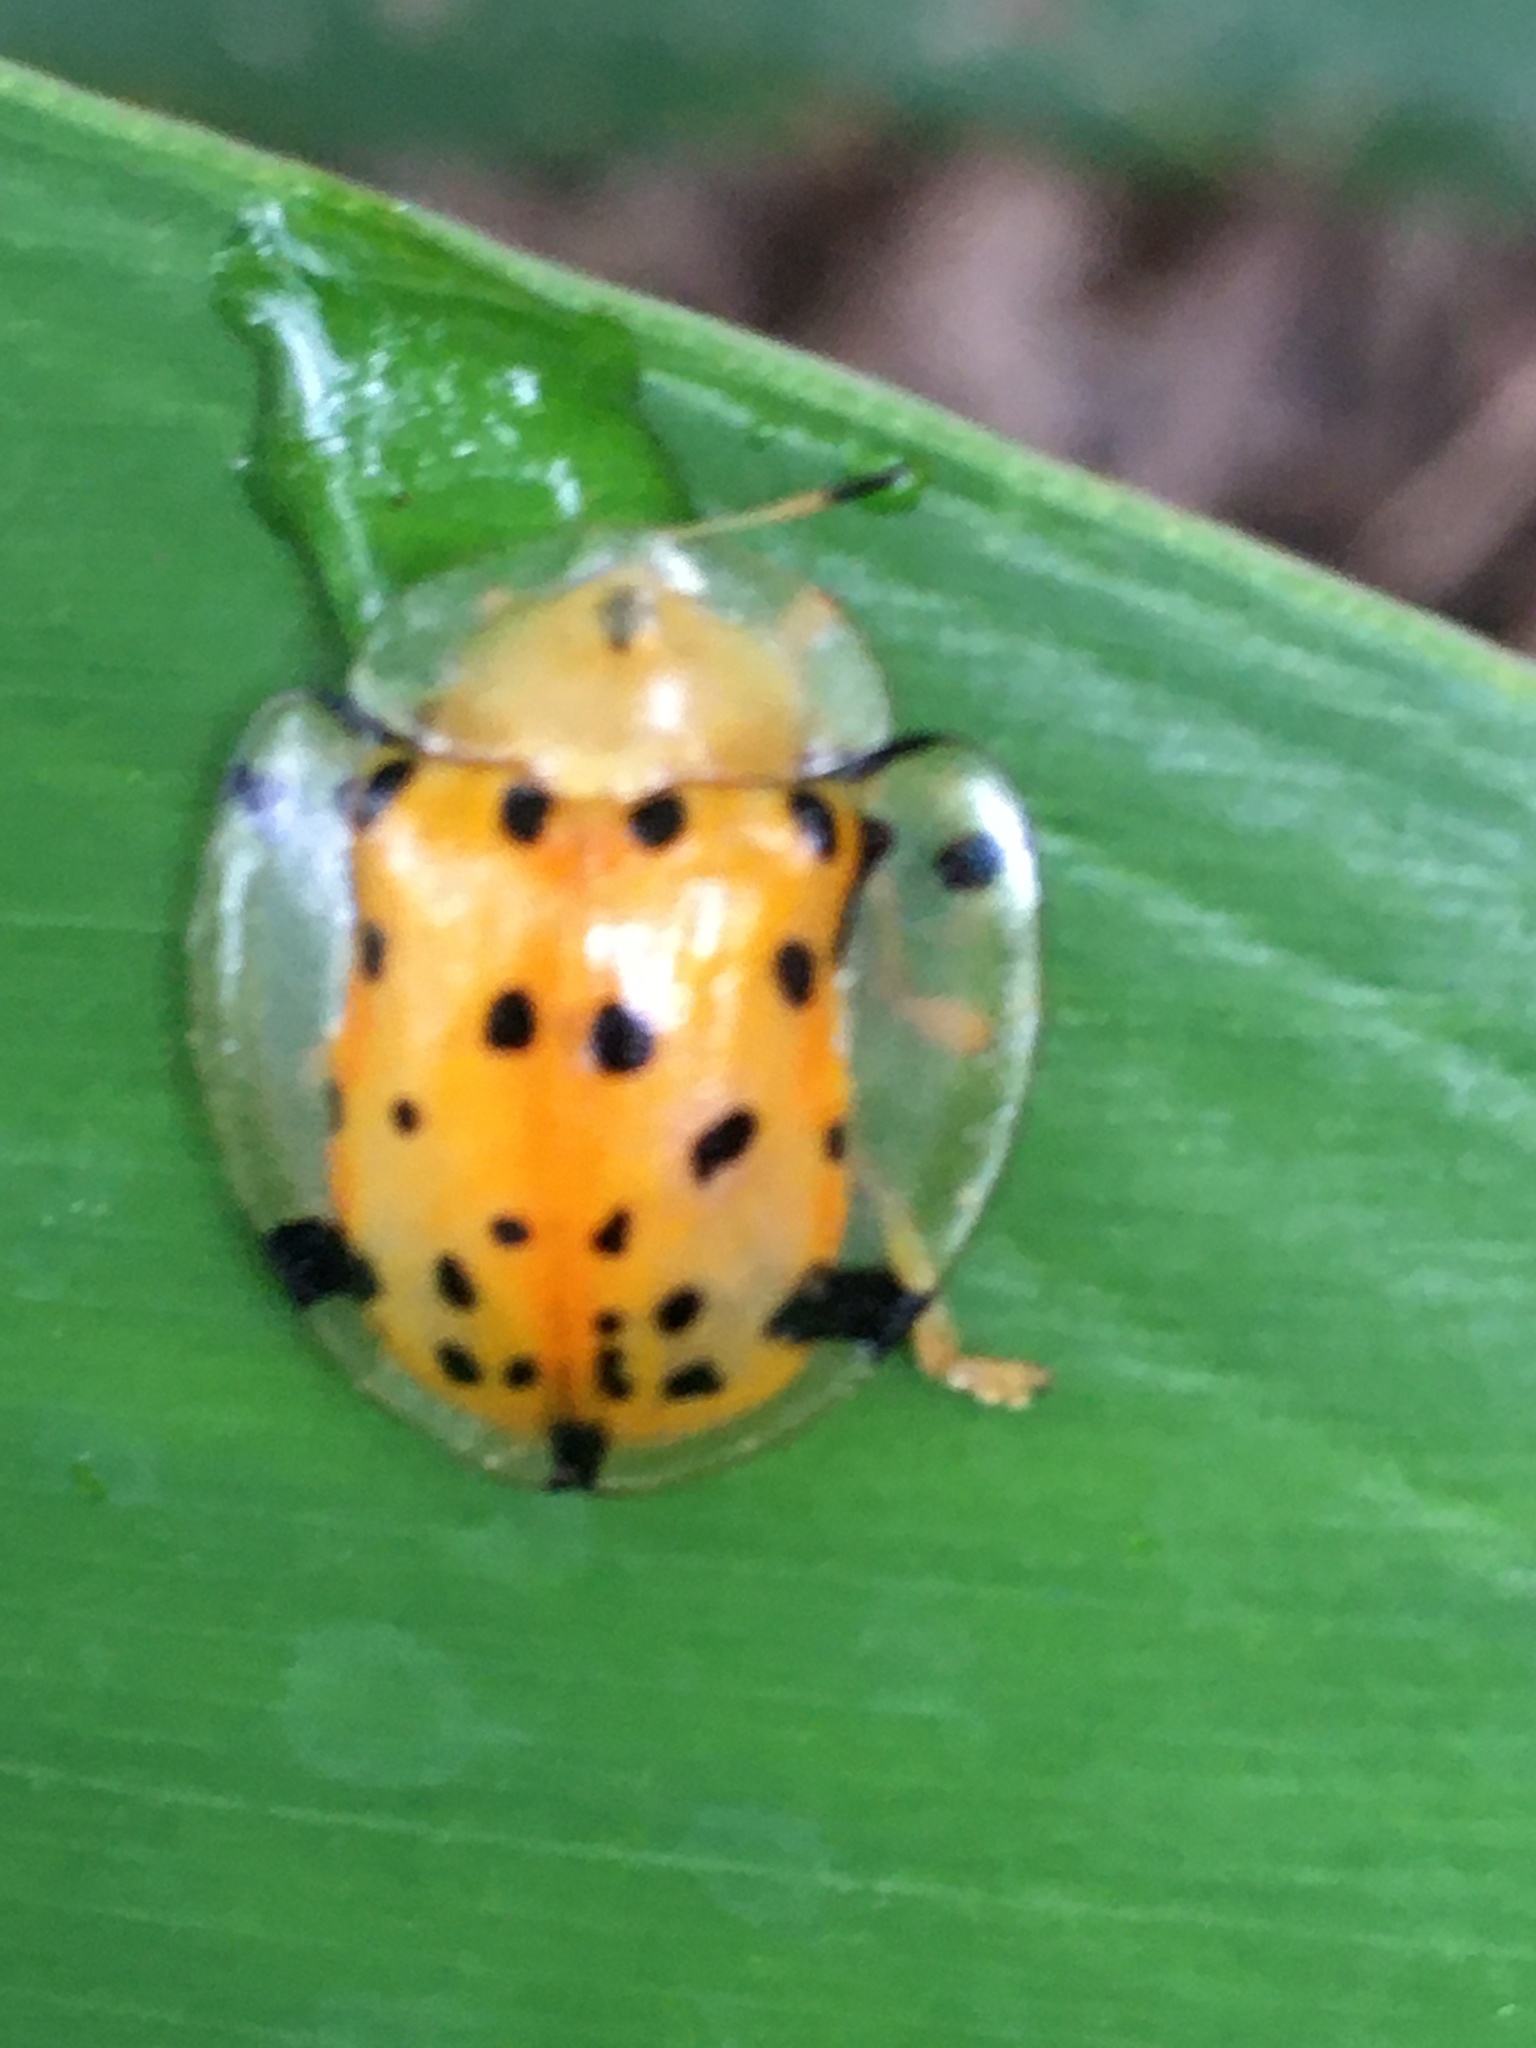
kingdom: Animalia
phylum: Arthropoda
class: Insecta
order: Coleoptera
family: Chrysomelidae
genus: Aspidimorpha
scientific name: Aspidimorpha miliaris
